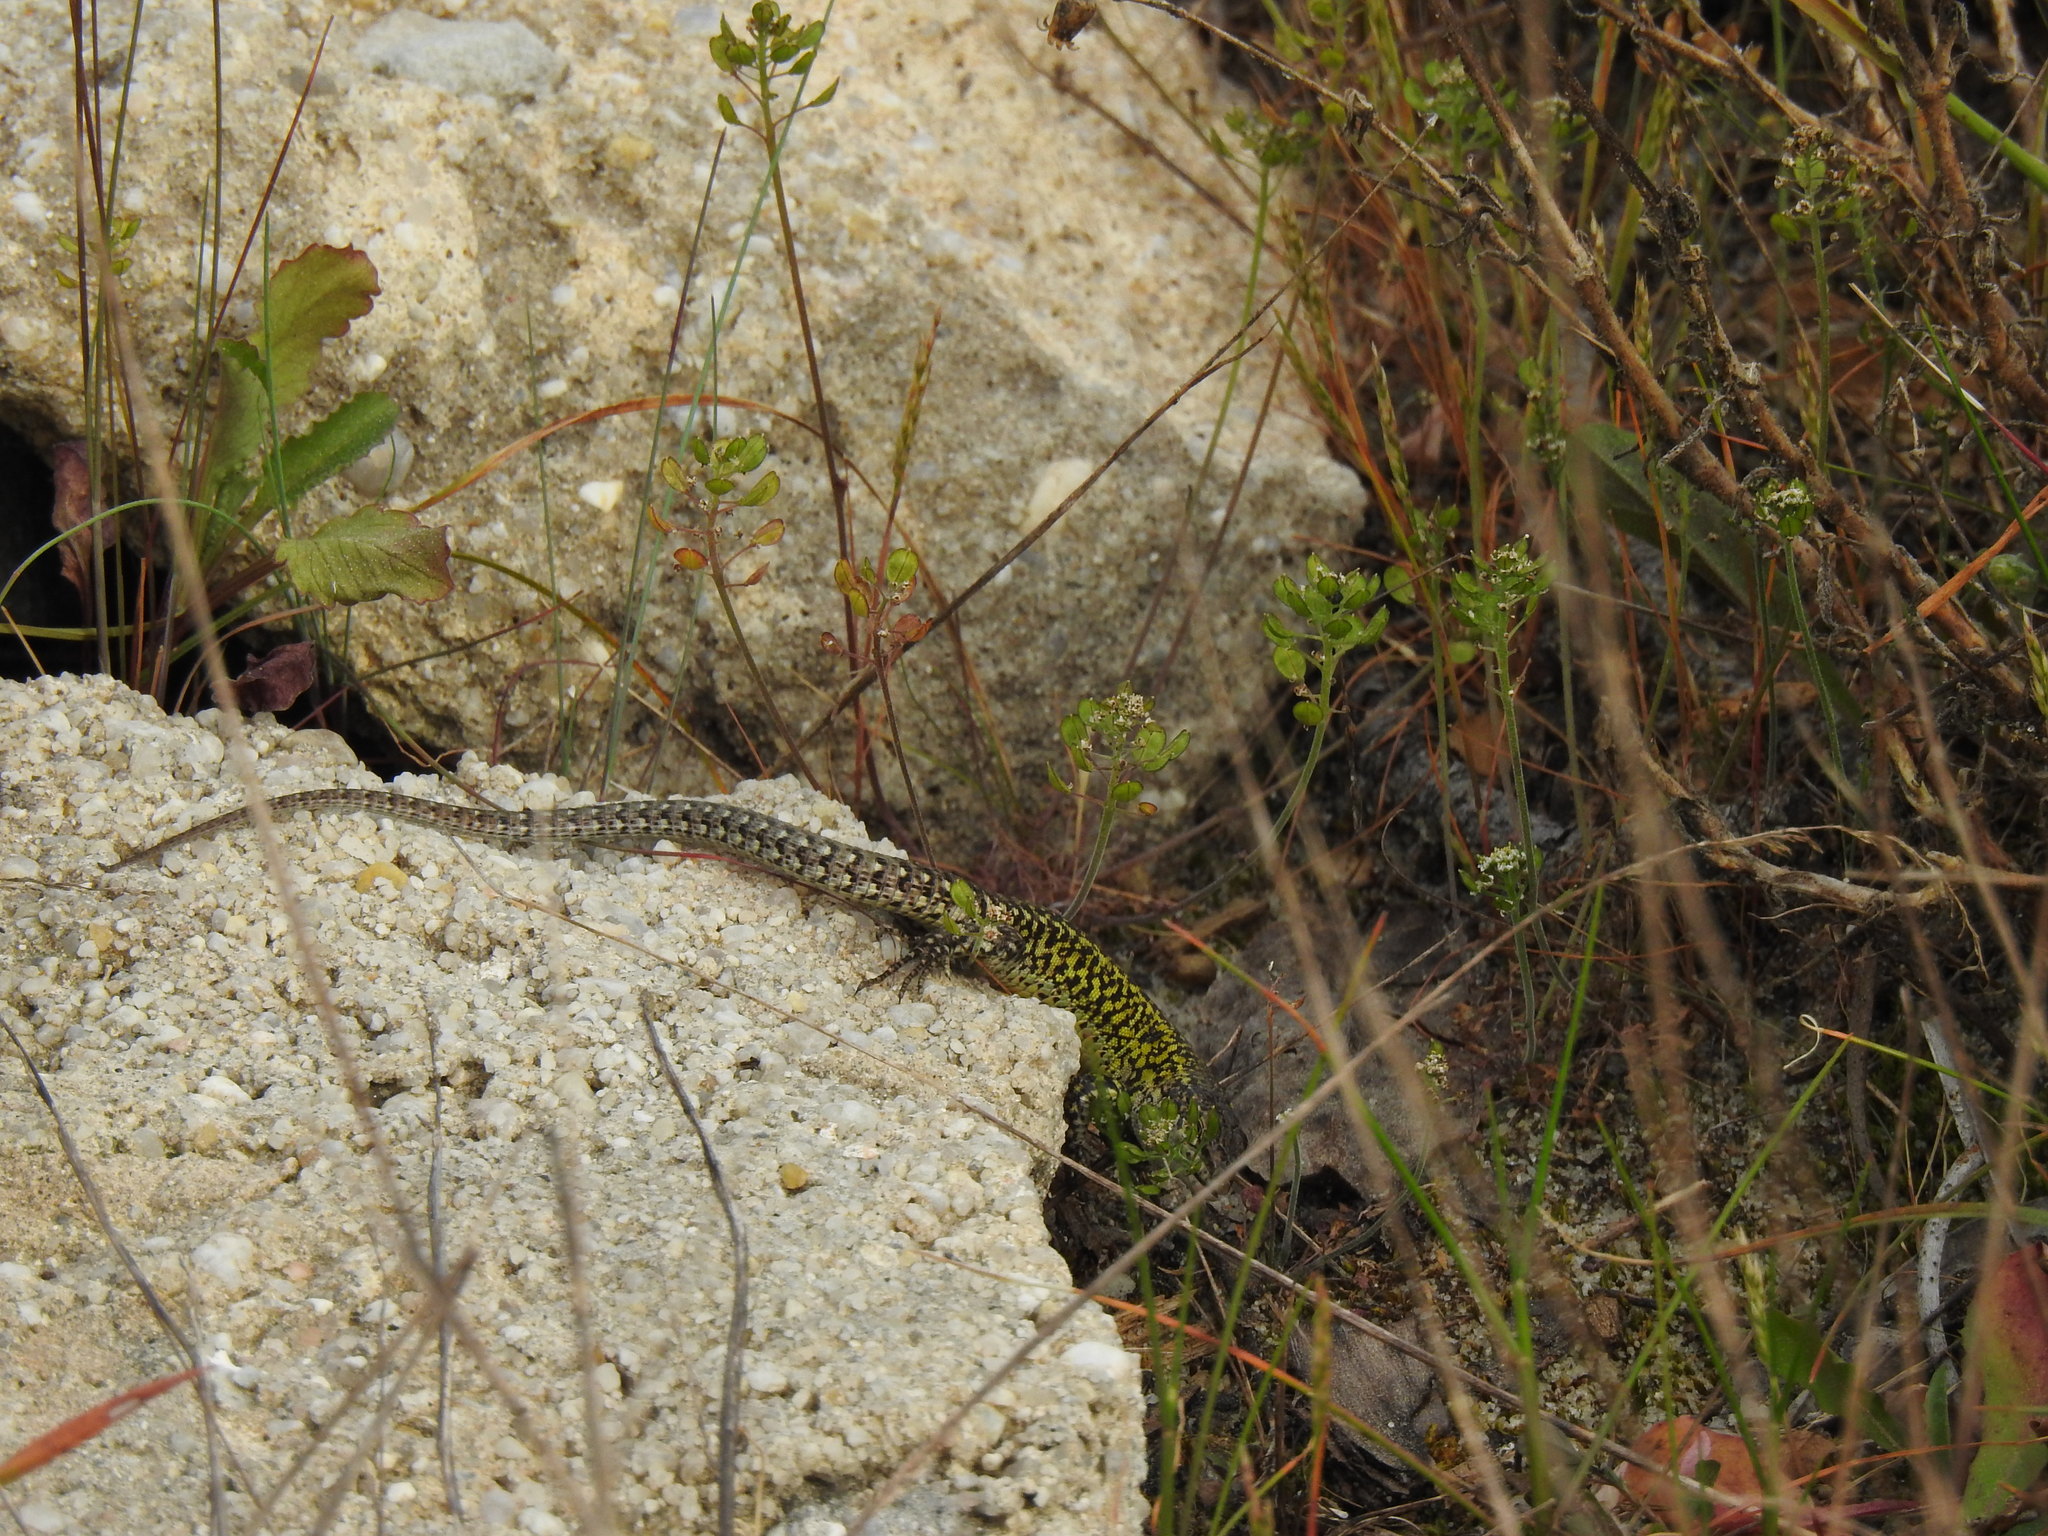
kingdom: Animalia
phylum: Chordata
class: Squamata
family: Lacertidae
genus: Podarcis
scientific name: Podarcis carbonelli
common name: Carbonelli's wall lizard
